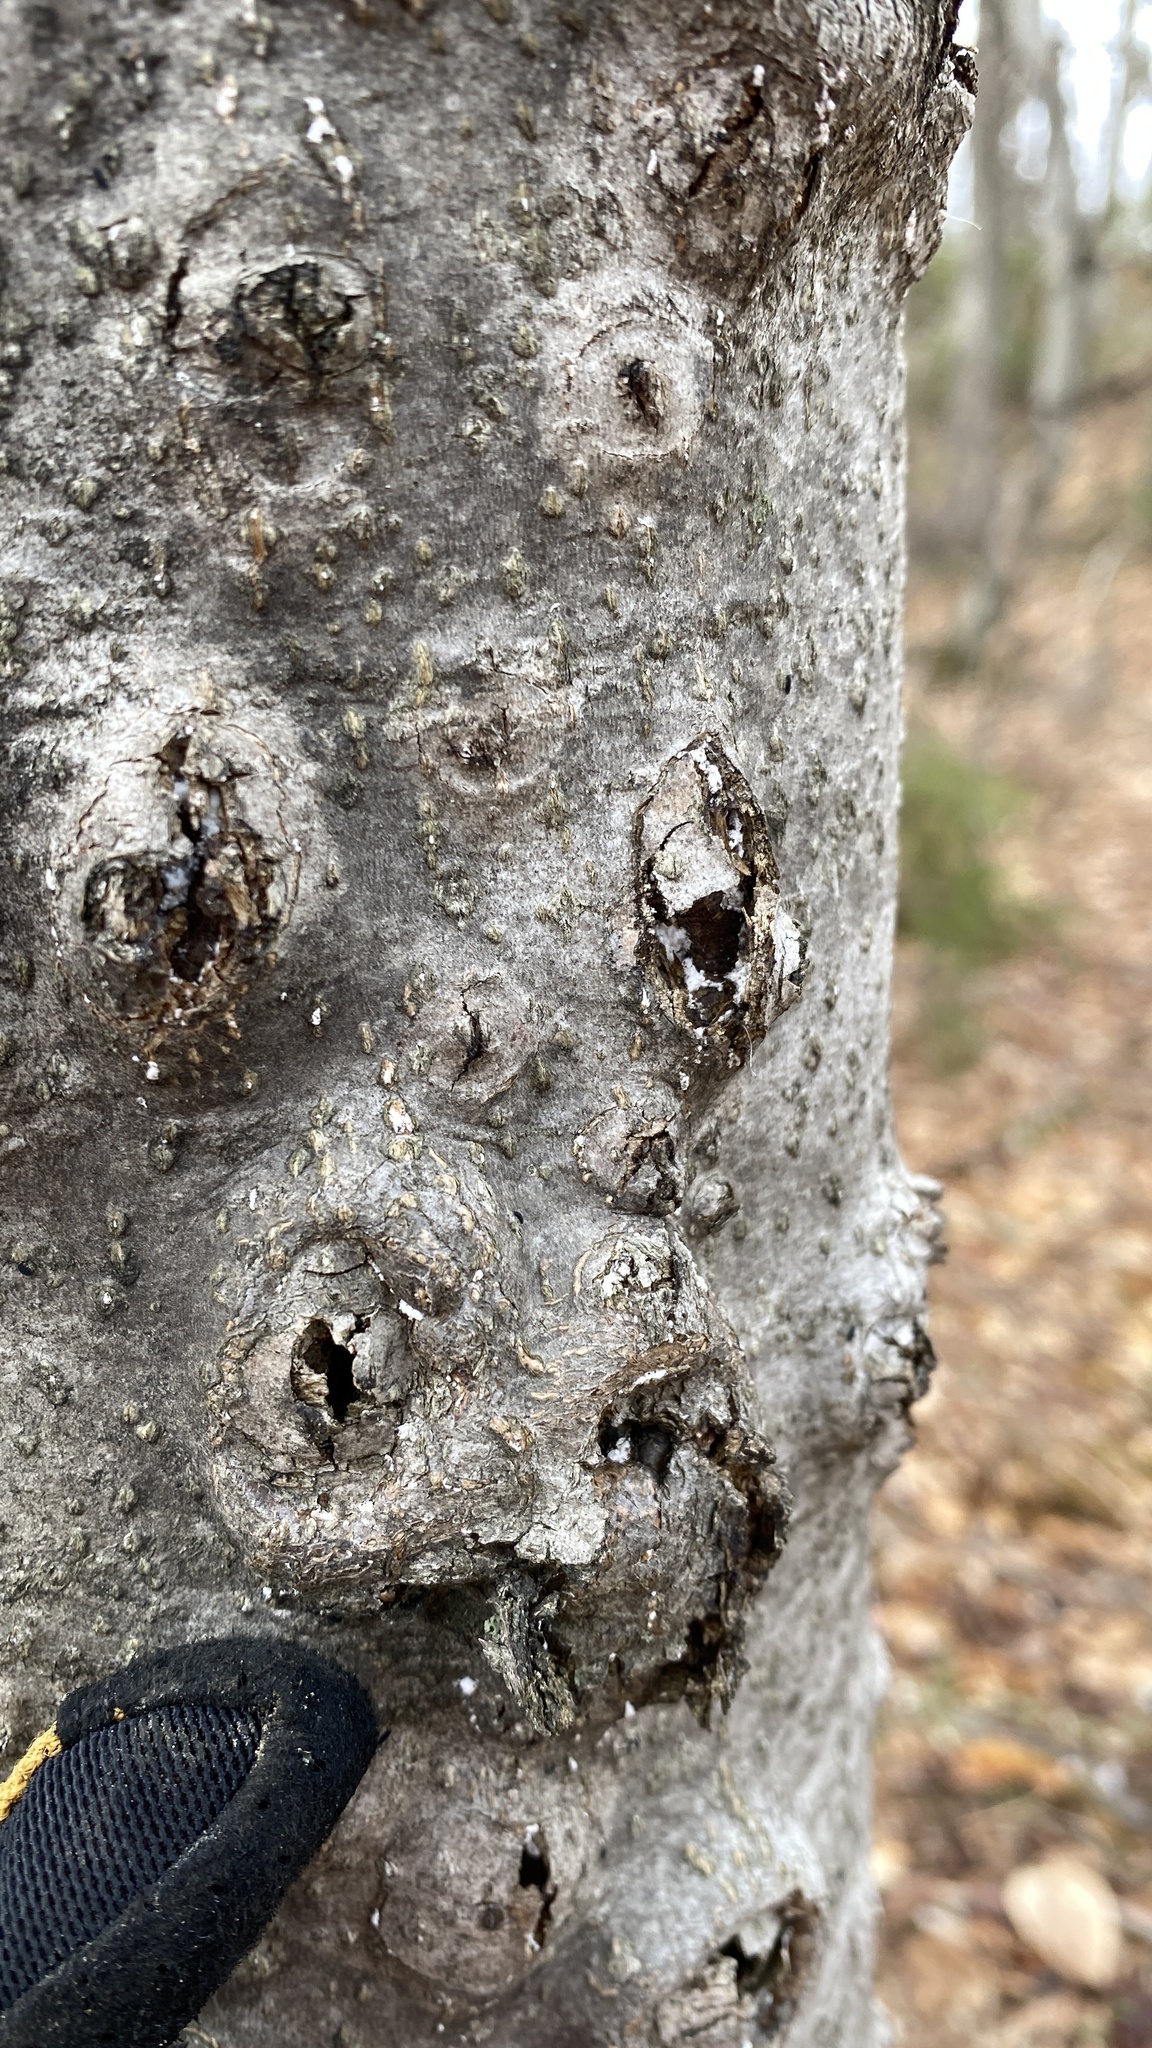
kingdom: Animalia
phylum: Arthropoda
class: Insecta
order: Hemiptera
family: Eriococcidae
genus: Cryptococcus
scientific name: Cryptococcus fagisuga
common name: Beech scale
